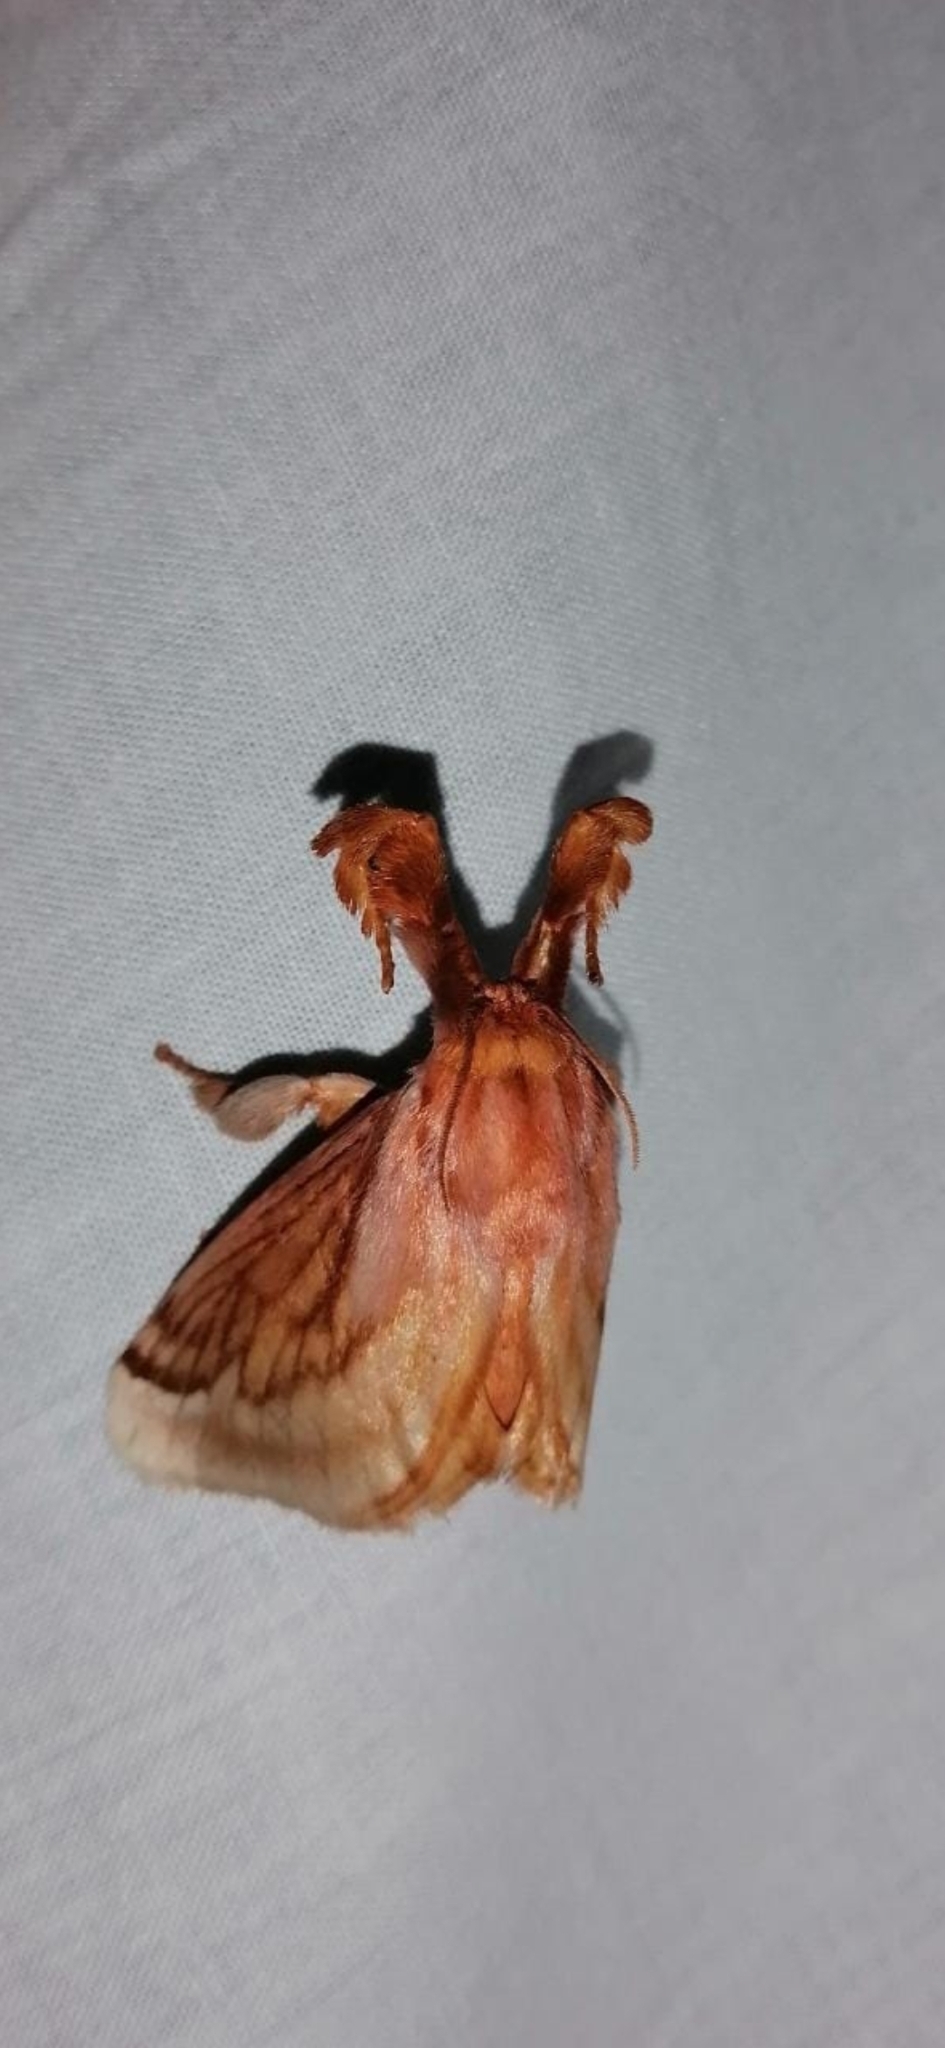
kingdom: Animalia
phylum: Arthropoda
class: Insecta
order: Lepidoptera
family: Limacodidae
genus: Perola
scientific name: Perola villosipes
